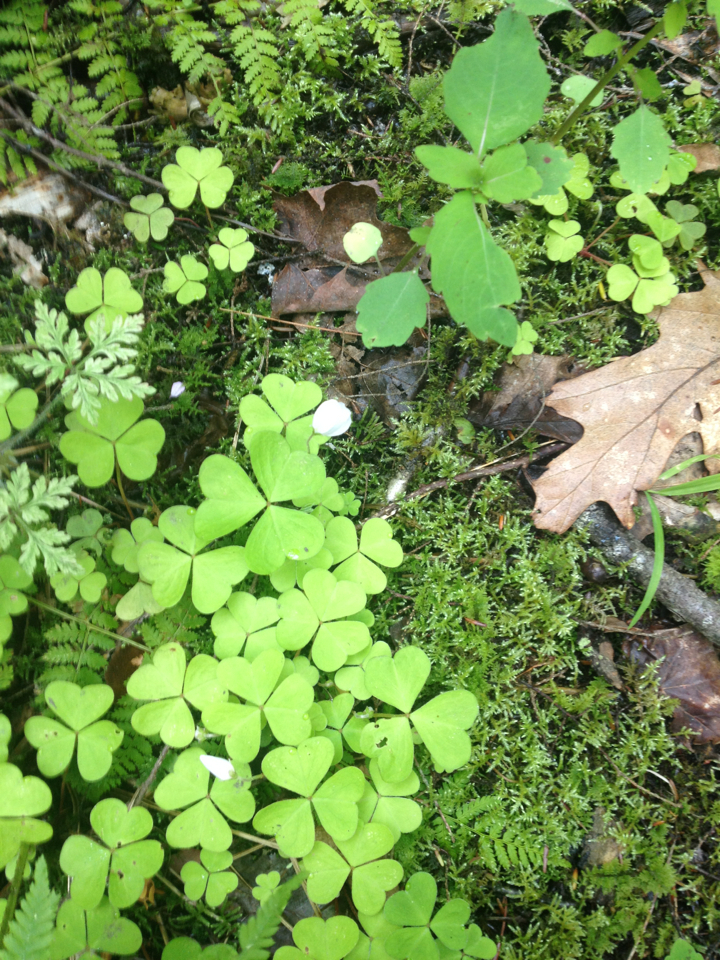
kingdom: Plantae
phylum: Tracheophyta
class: Magnoliopsida
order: Oxalidales
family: Oxalidaceae
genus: Oxalis
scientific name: Oxalis montana
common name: American wood-sorrel
